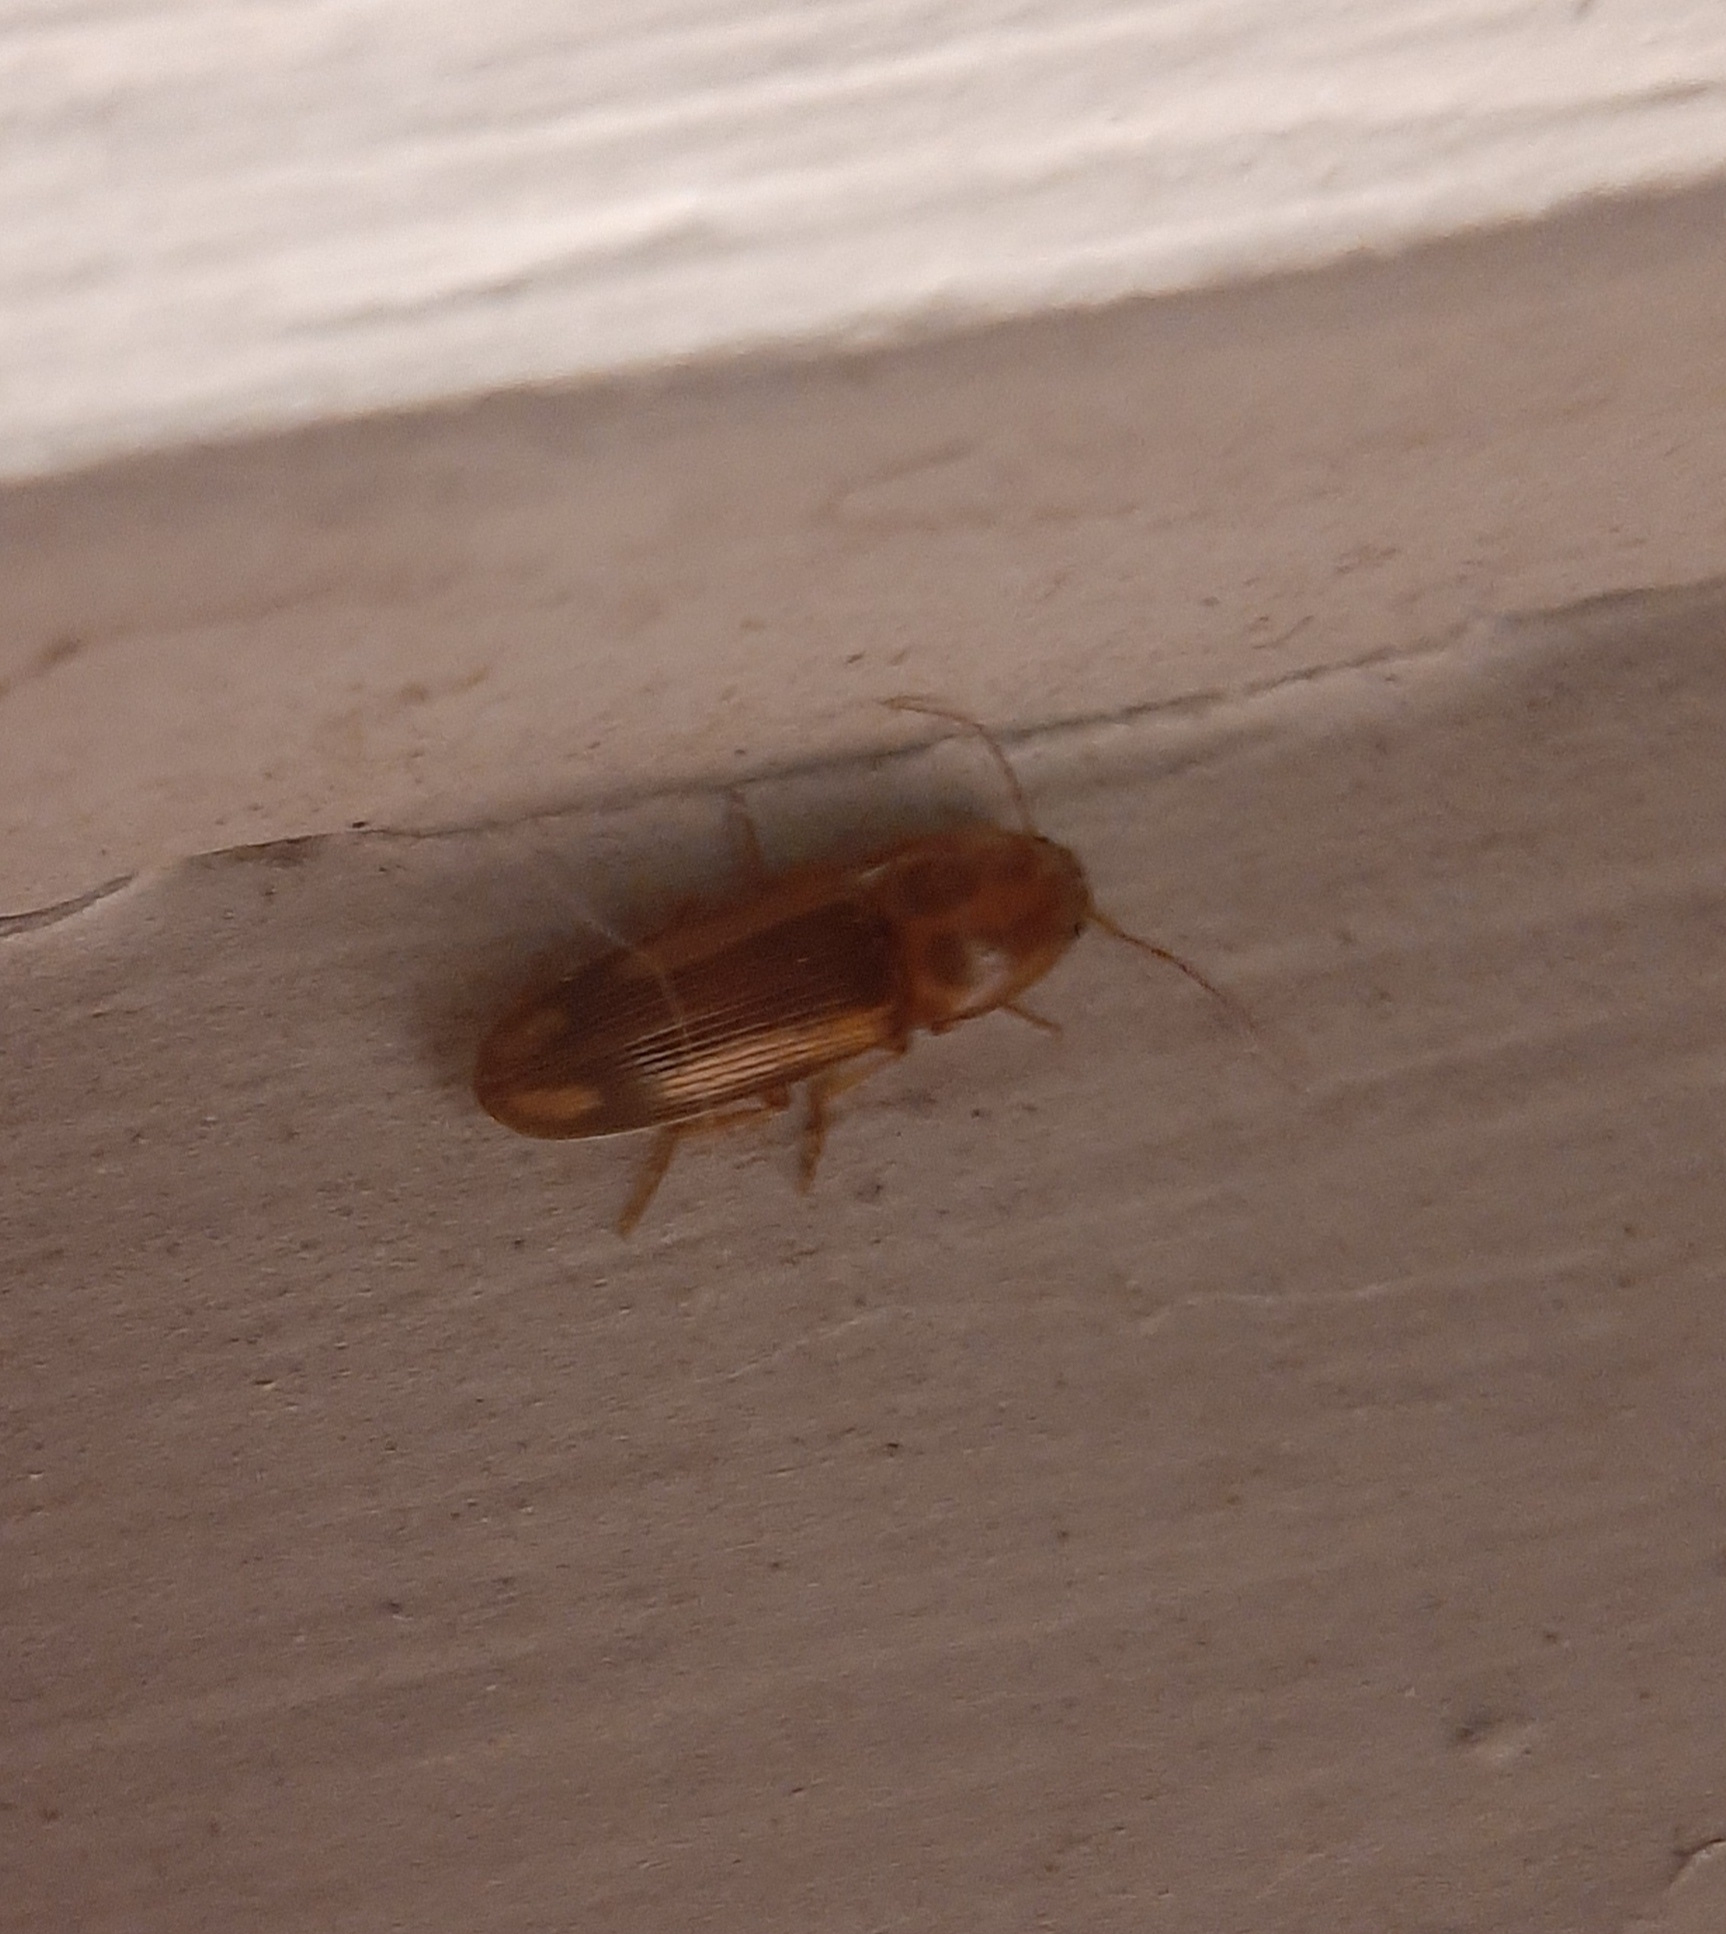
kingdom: Animalia
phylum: Arthropoda
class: Insecta
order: Coleoptera
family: Elateridae
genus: Monocrepidius
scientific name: Monocrepidius
